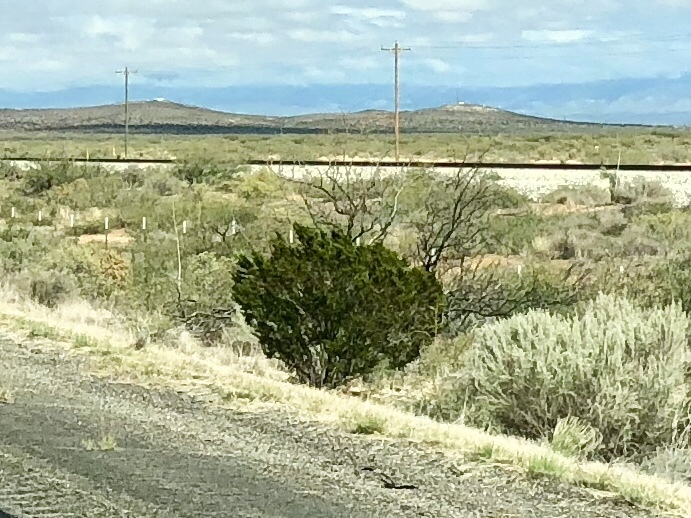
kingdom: Plantae
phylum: Tracheophyta
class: Magnoliopsida
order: Zygophyllales
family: Zygophyllaceae
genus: Larrea
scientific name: Larrea tridentata
